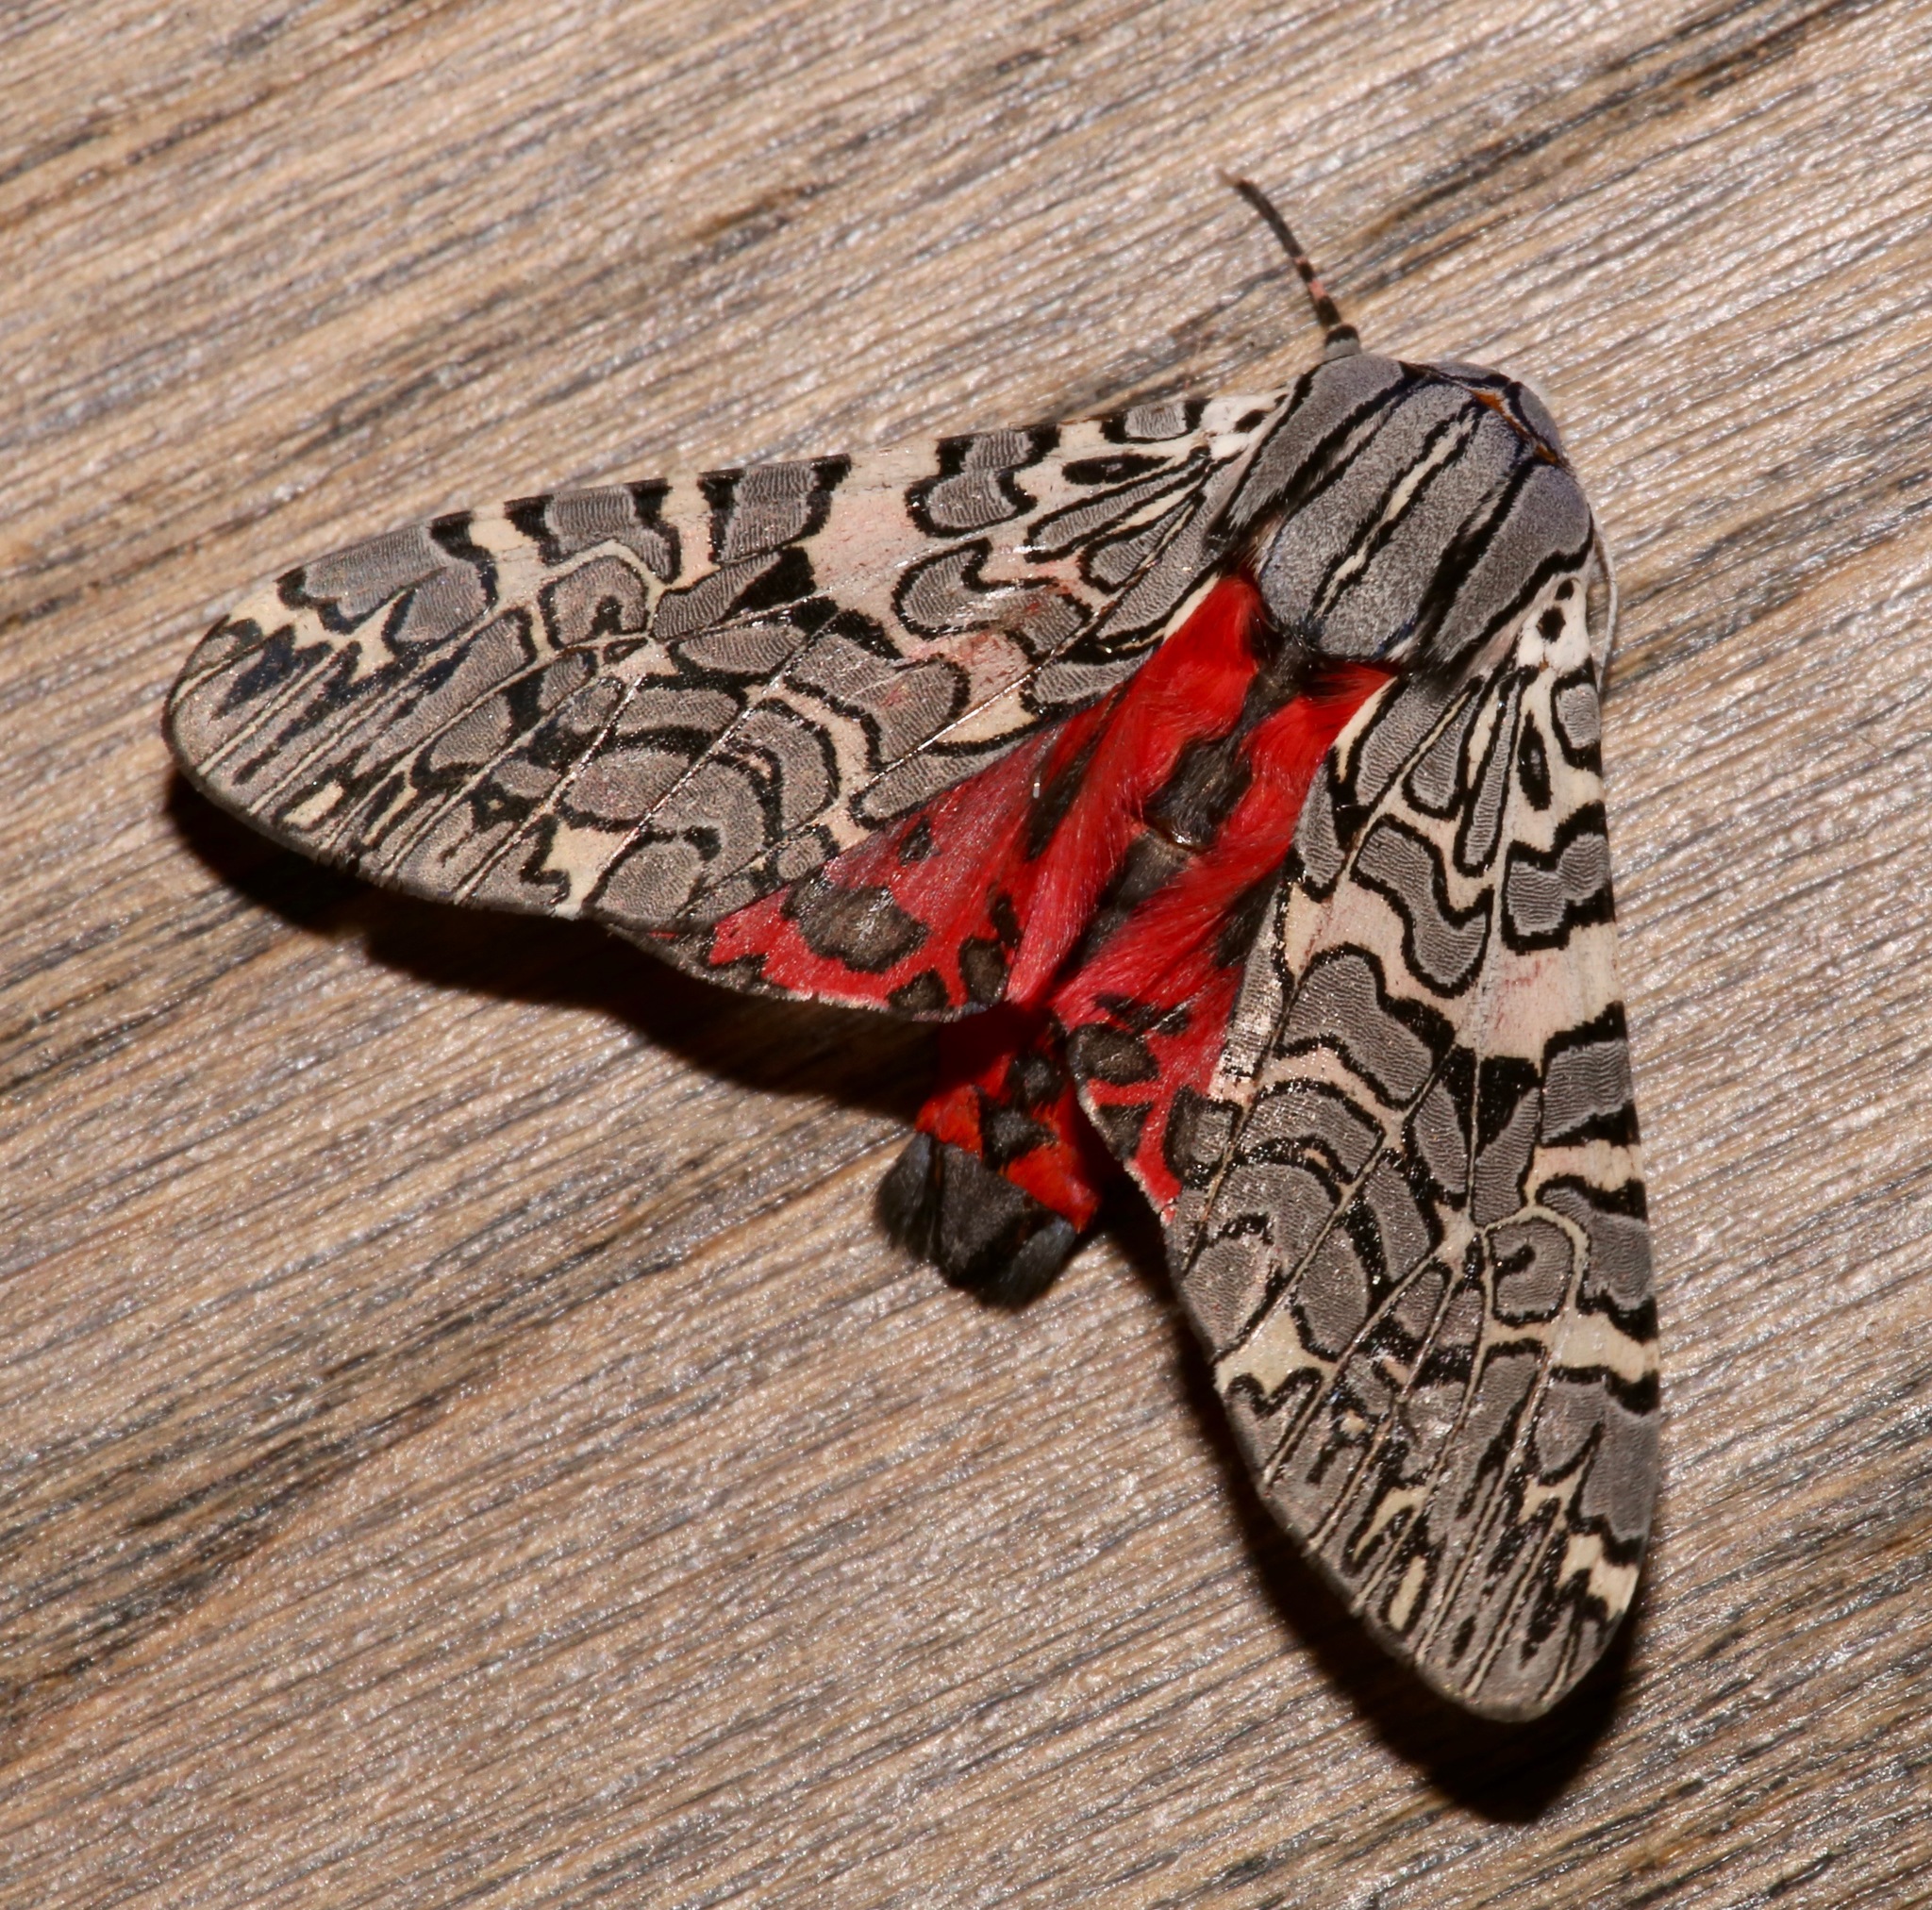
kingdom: Animalia
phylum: Arthropoda
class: Insecta
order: Lepidoptera
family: Erebidae
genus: Arachnis
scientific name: Arachnis picta
